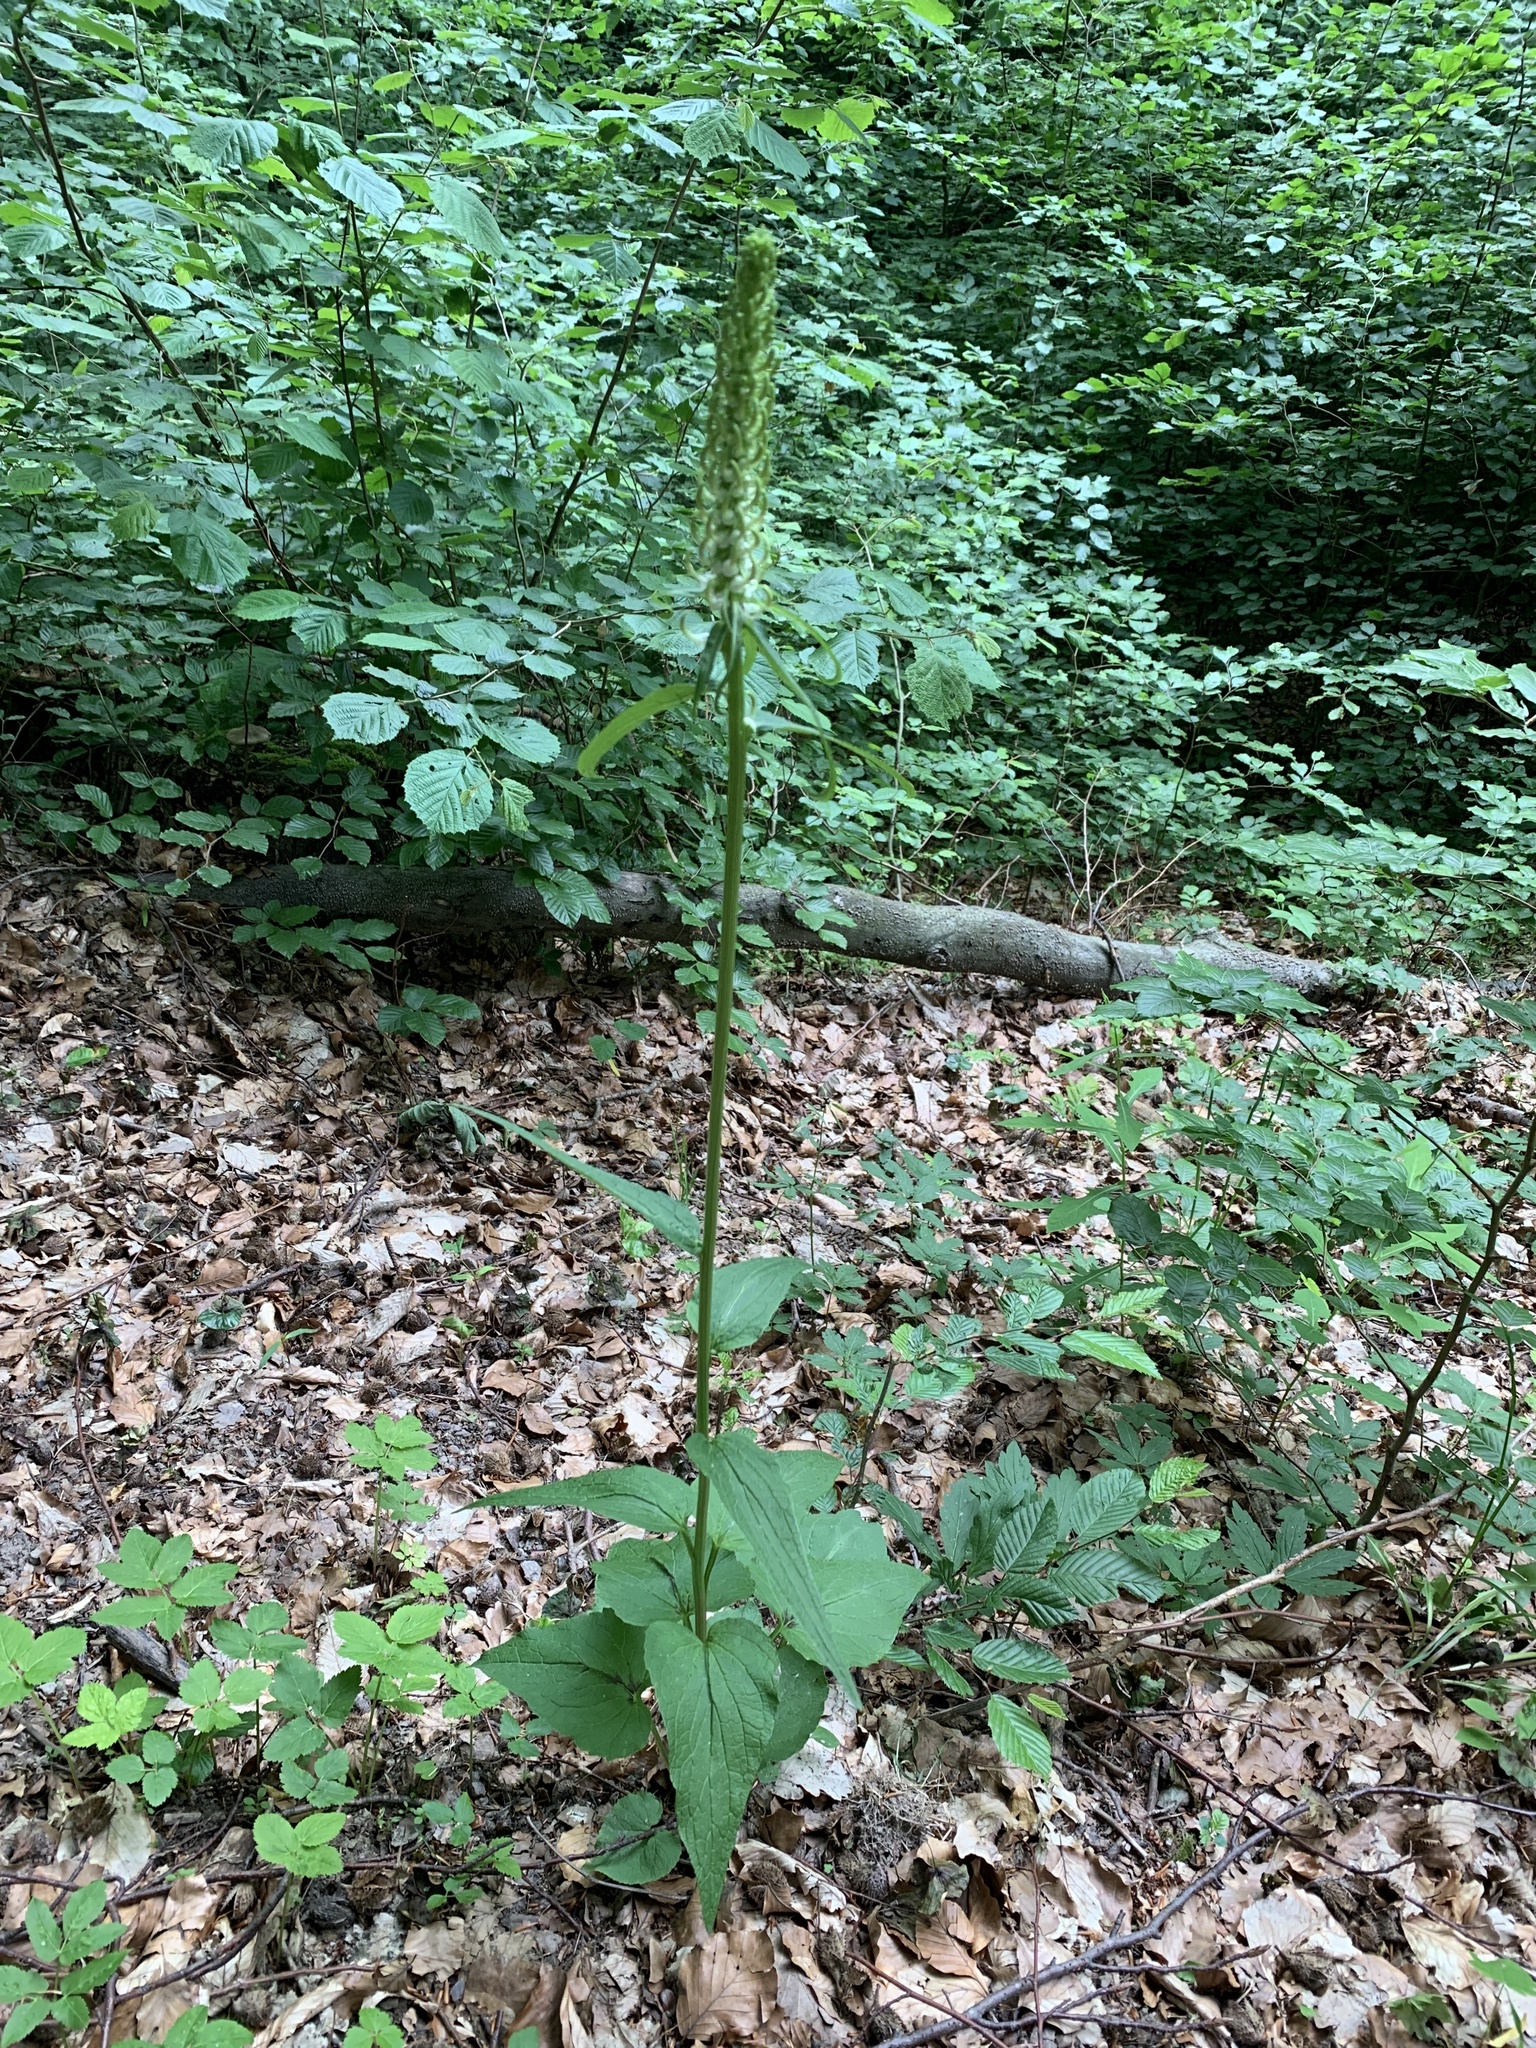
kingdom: Plantae
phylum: Tracheophyta
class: Magnoliopsida
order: Asterales
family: Campanulaceae
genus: Phyteuma
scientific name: Phyteuma spicatum
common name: Spiked rampion
